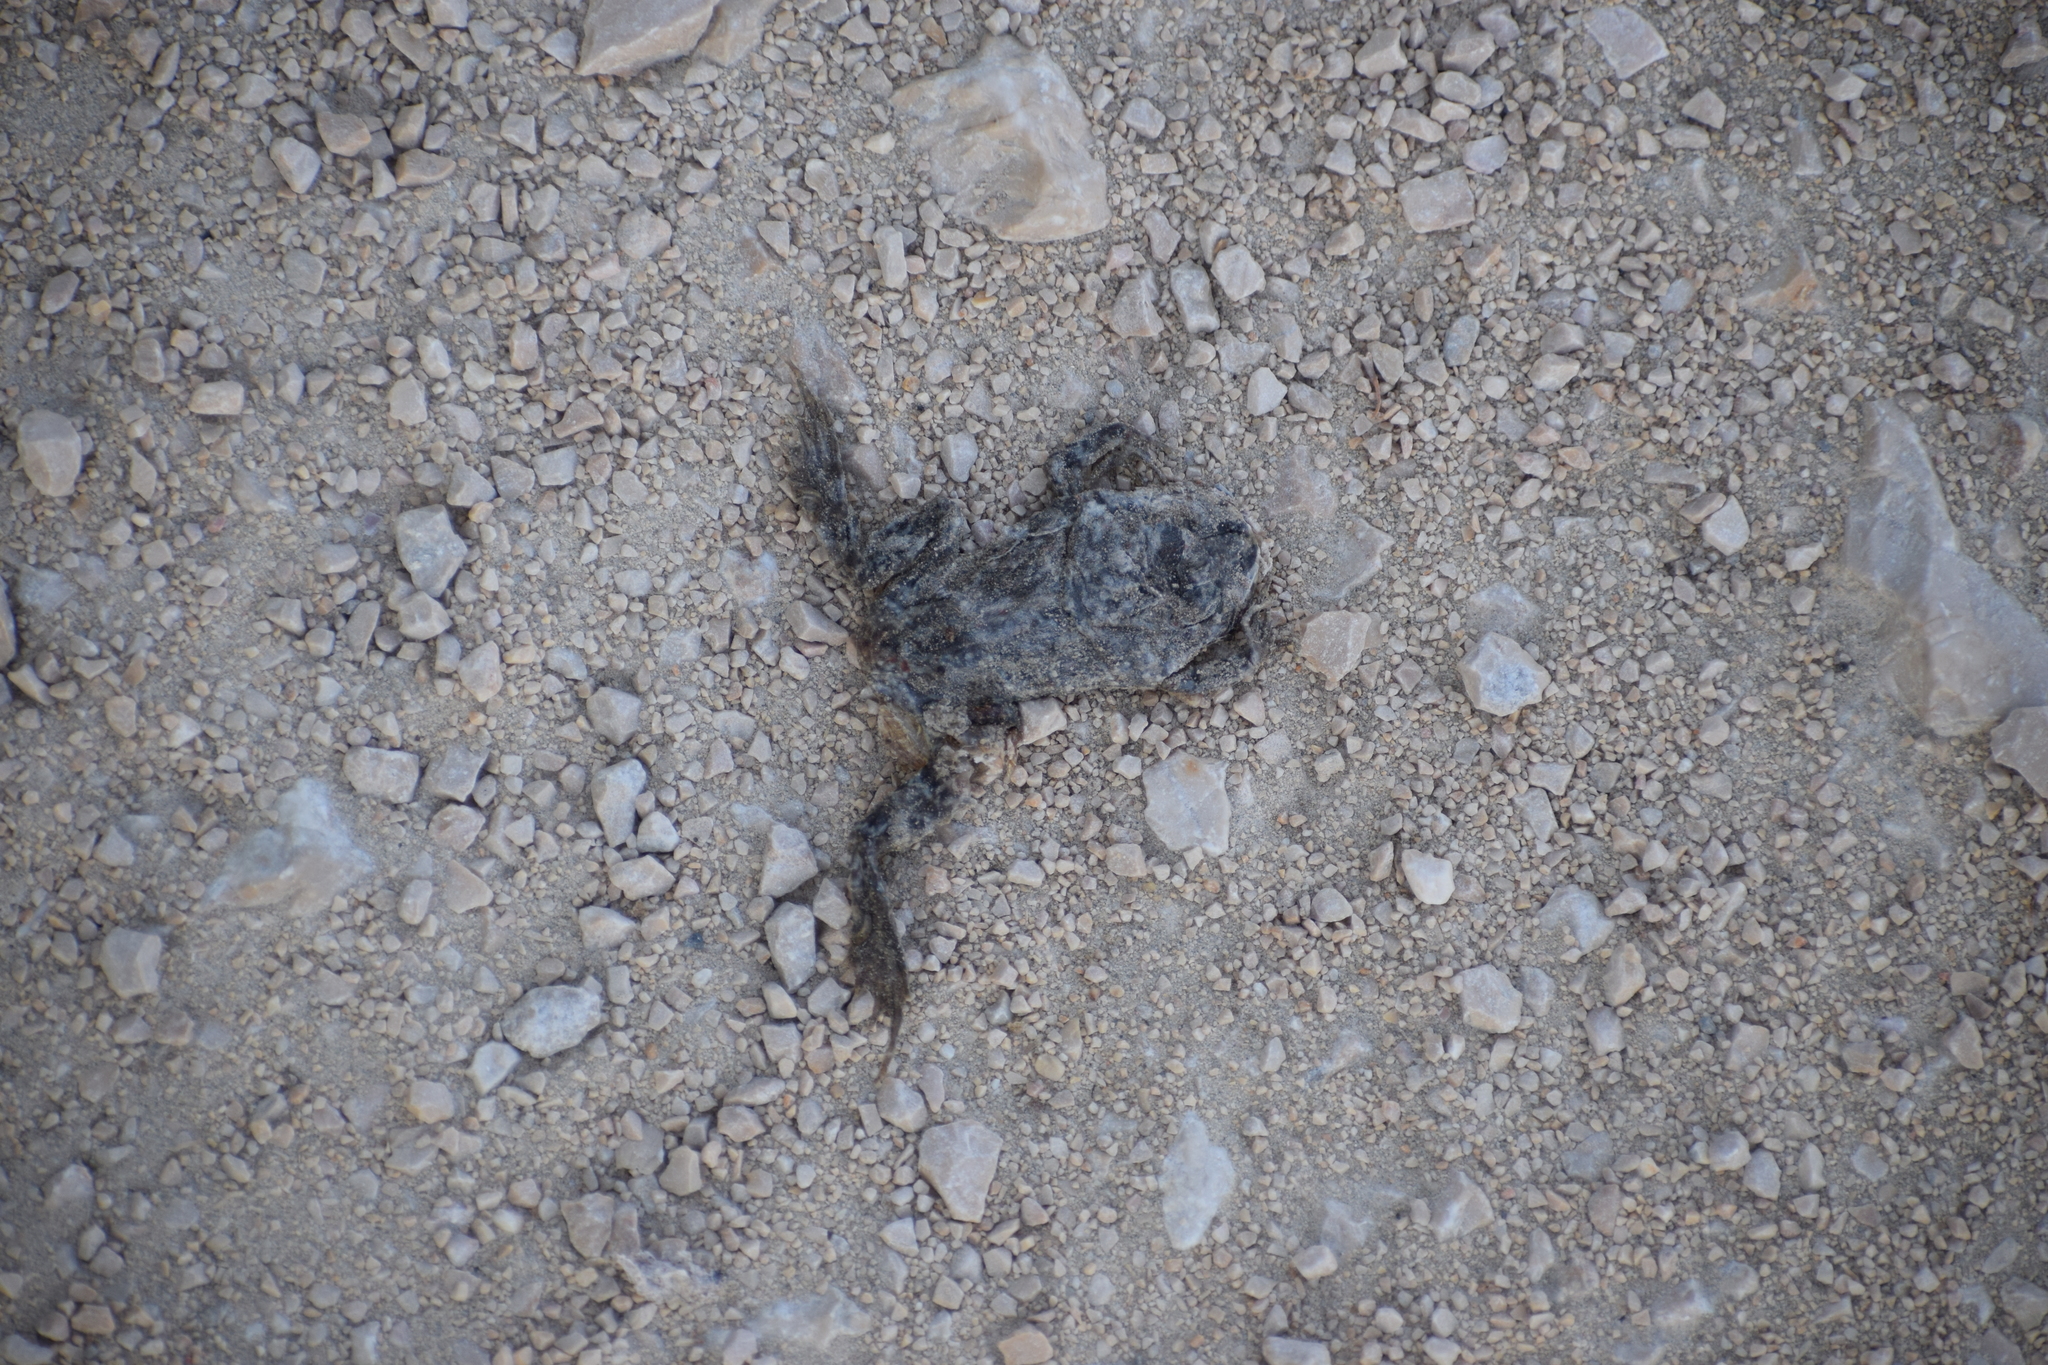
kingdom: Animalia
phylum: Chordata
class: Amphibia
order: Anura
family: Bufonidae
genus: Bufotes
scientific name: Bufotes viridis
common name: European green toad
